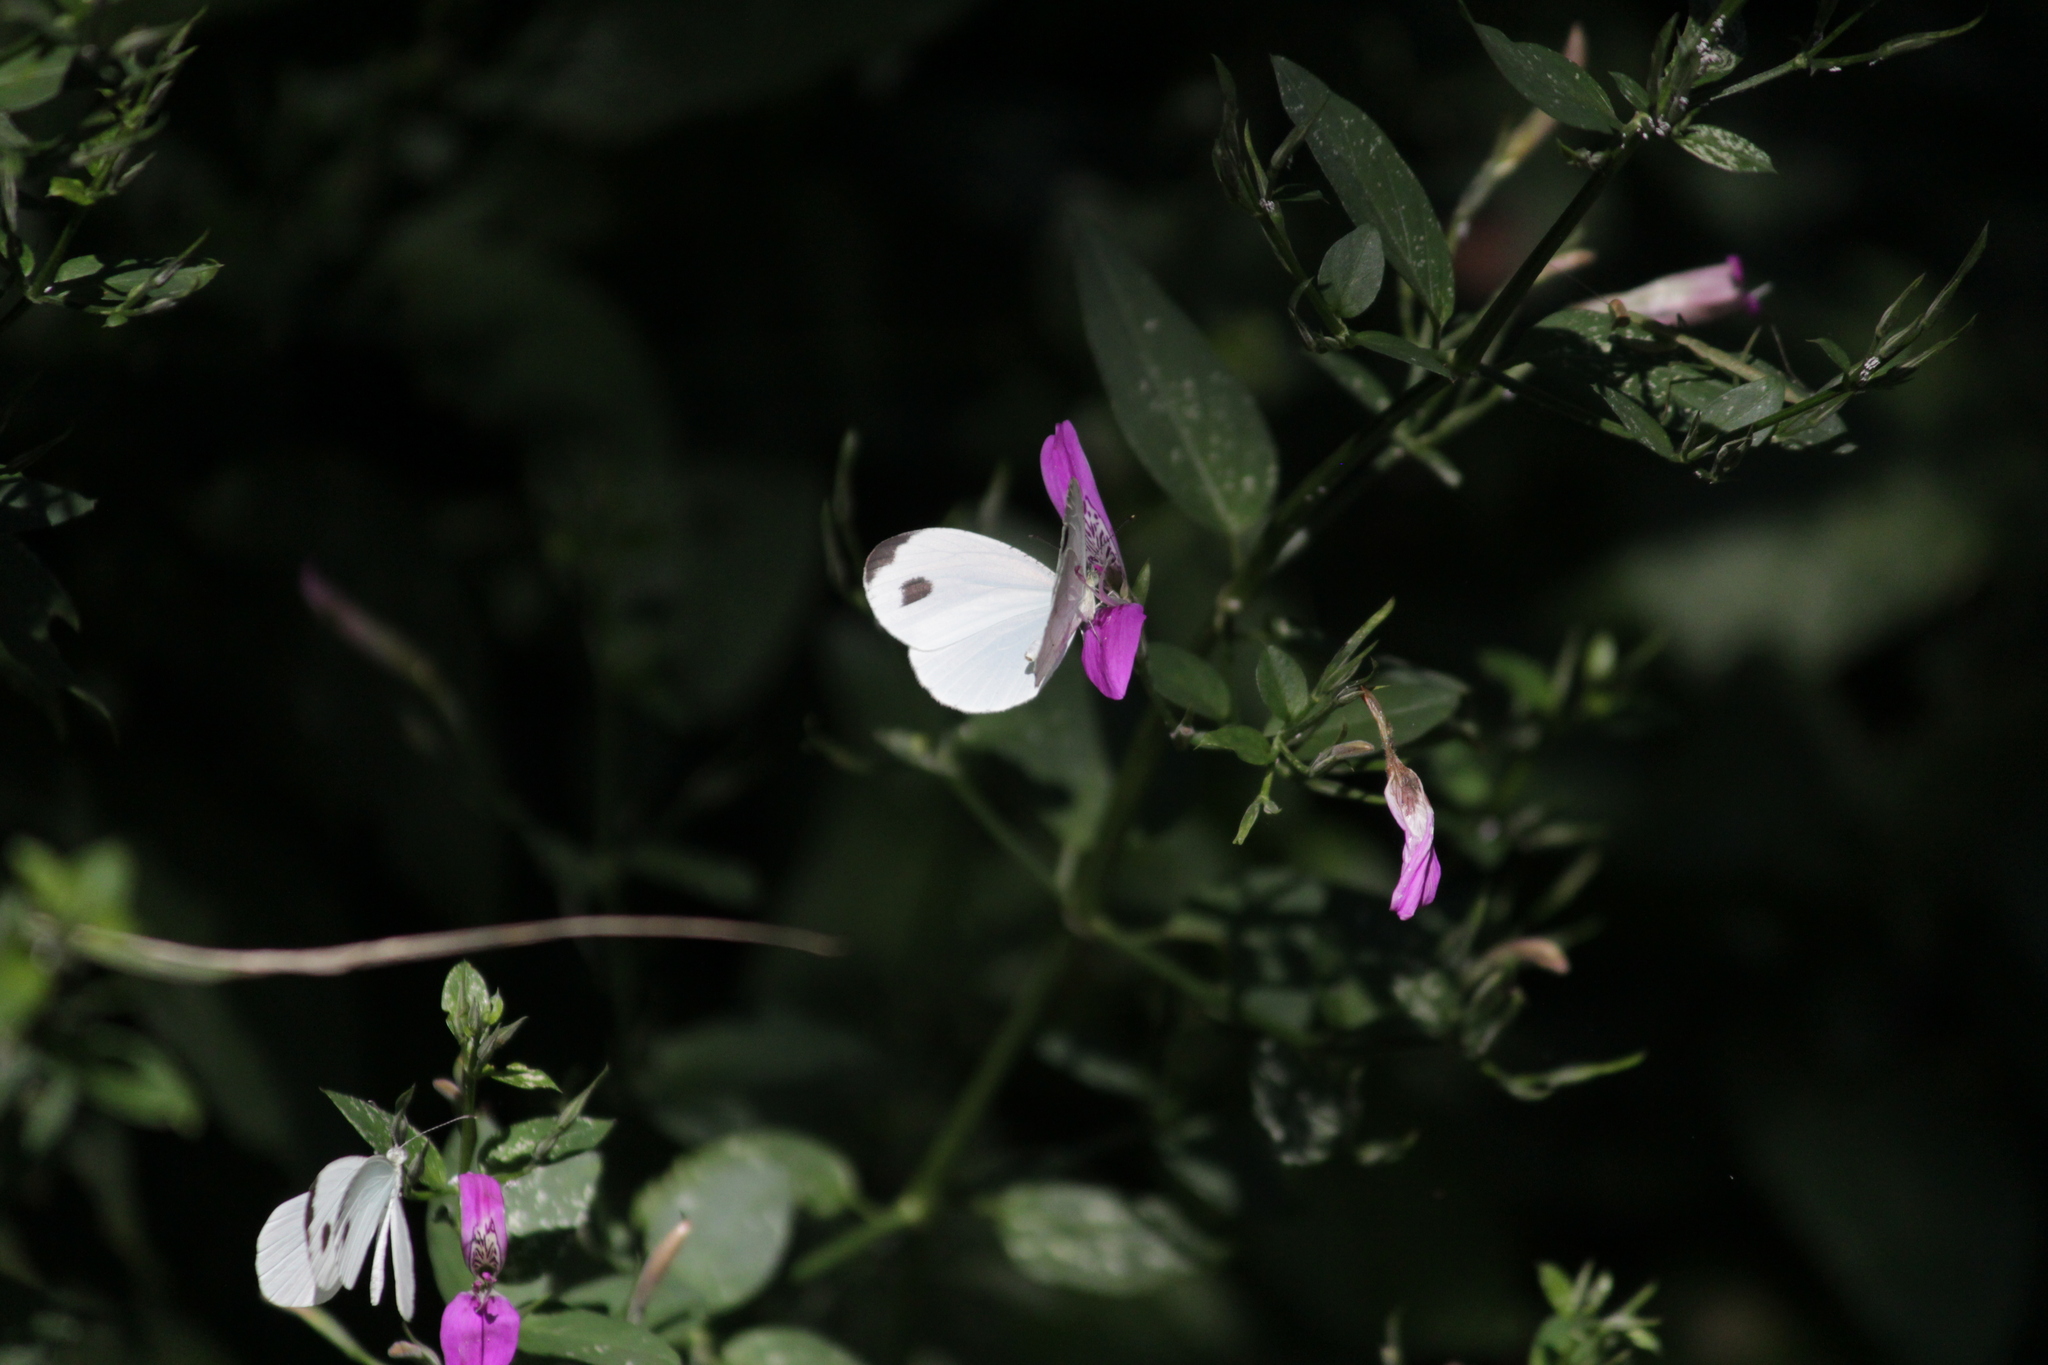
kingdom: Animalia
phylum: Arthropoda
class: Insecta
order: Lepidoptera
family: Pieridae
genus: Leptosia
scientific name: Leptosia alcesta
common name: African wood white
